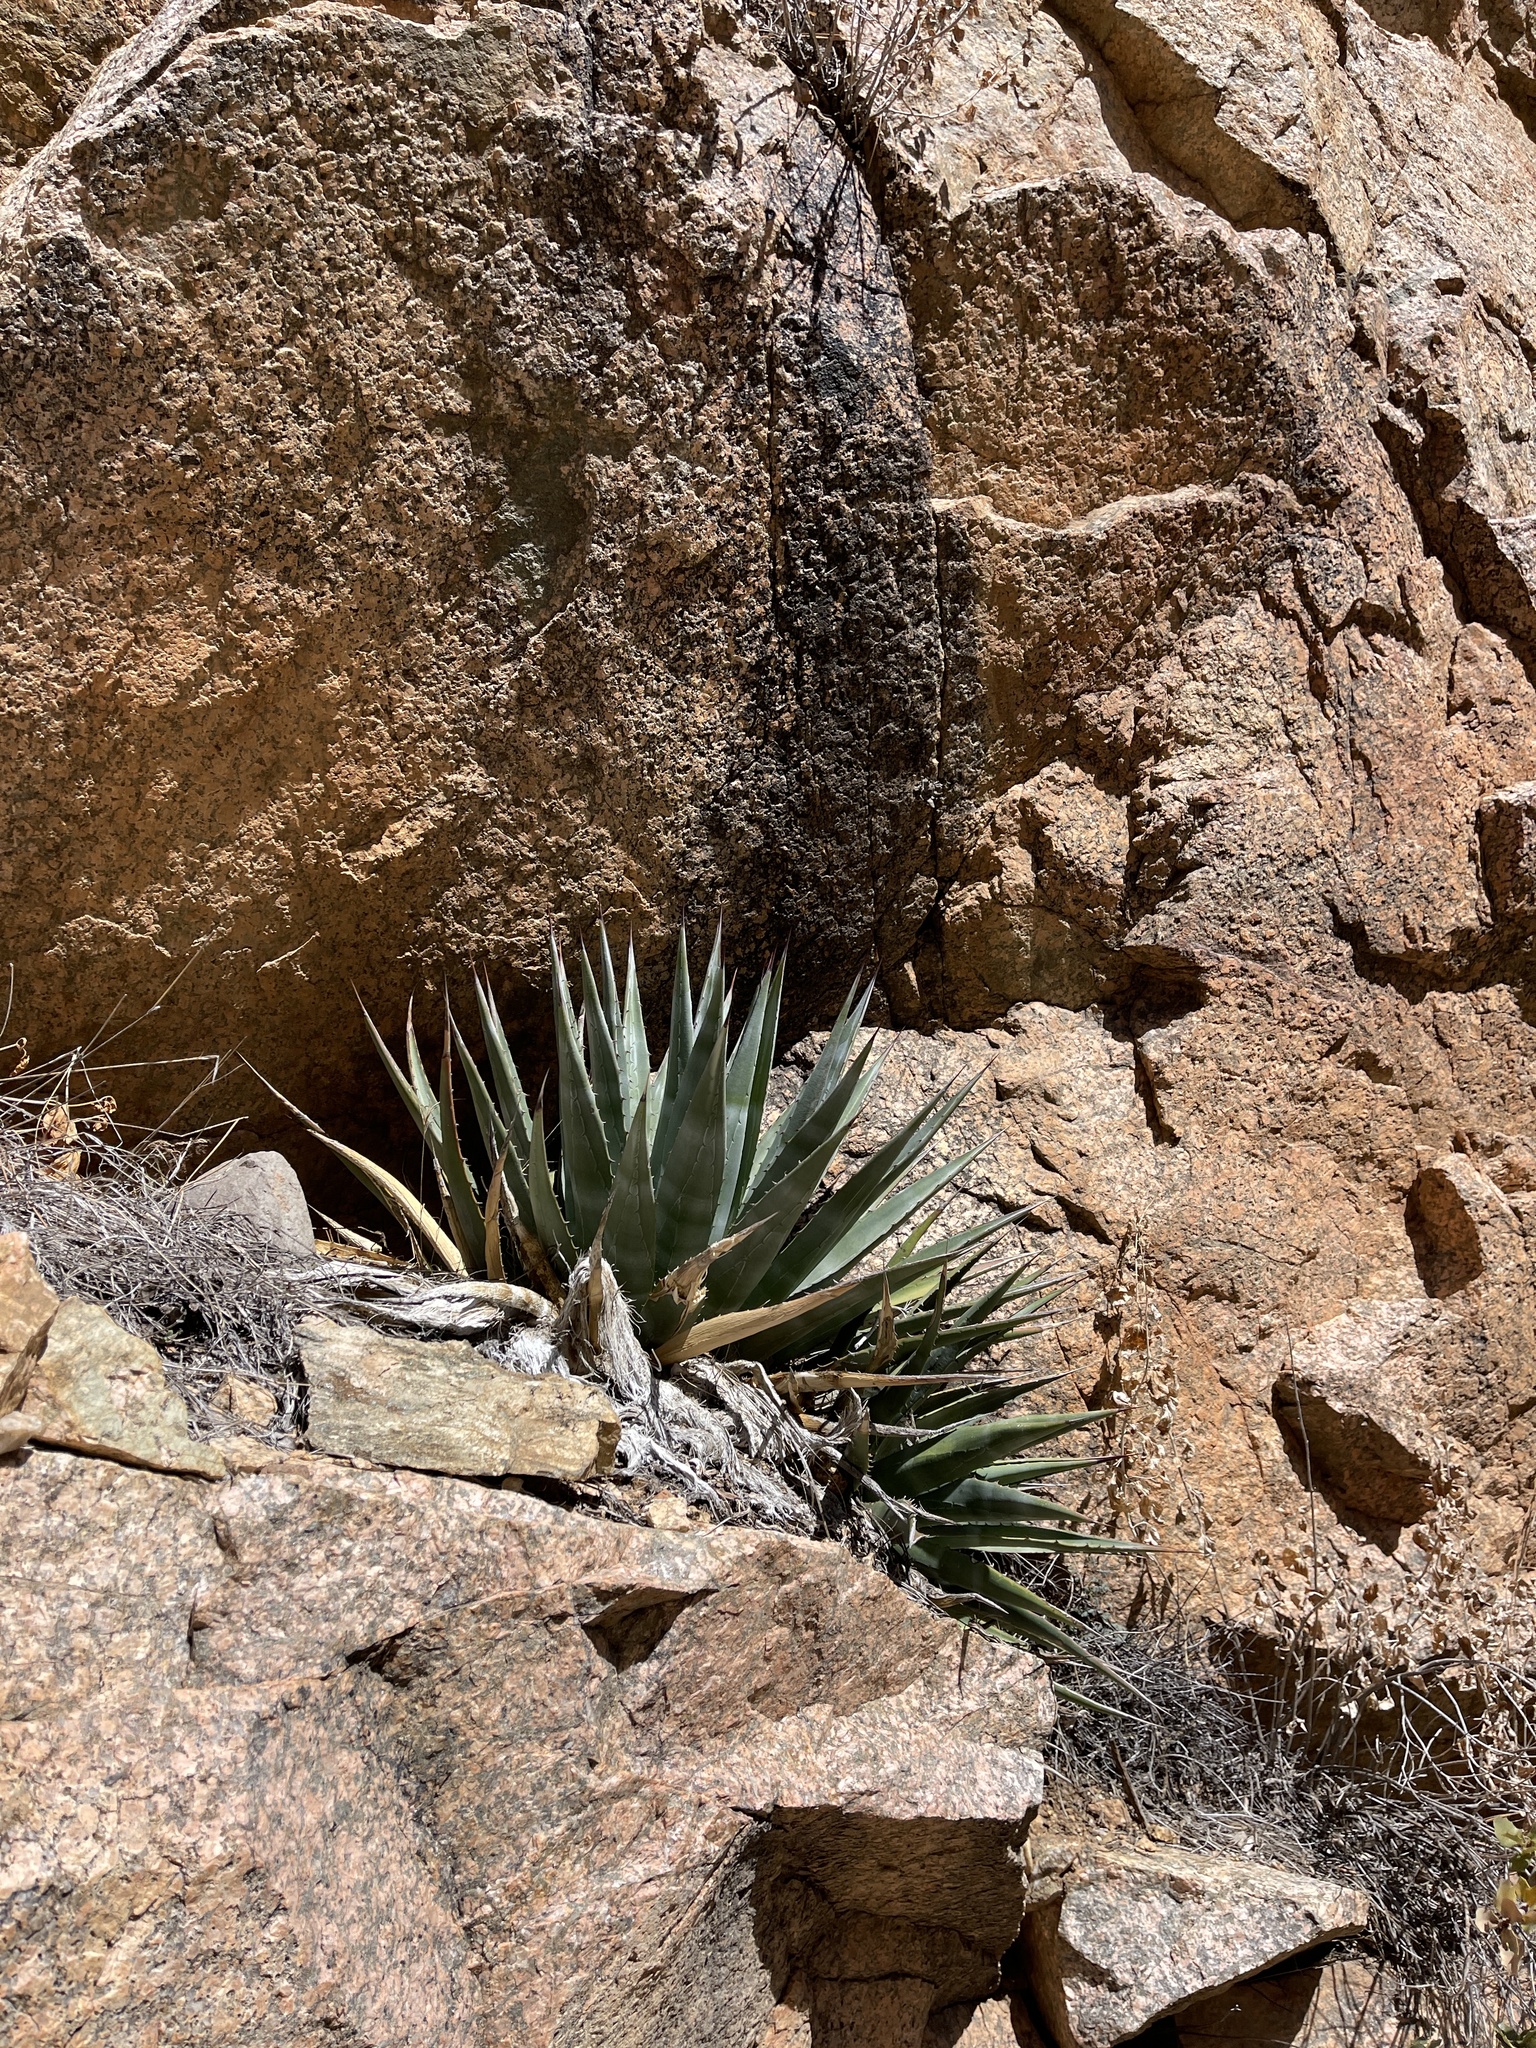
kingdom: Plantae
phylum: Tracheophyta
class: Liliopsida
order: Asparagales
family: Asparagaceae
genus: Agave
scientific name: Agave mckelveyana
